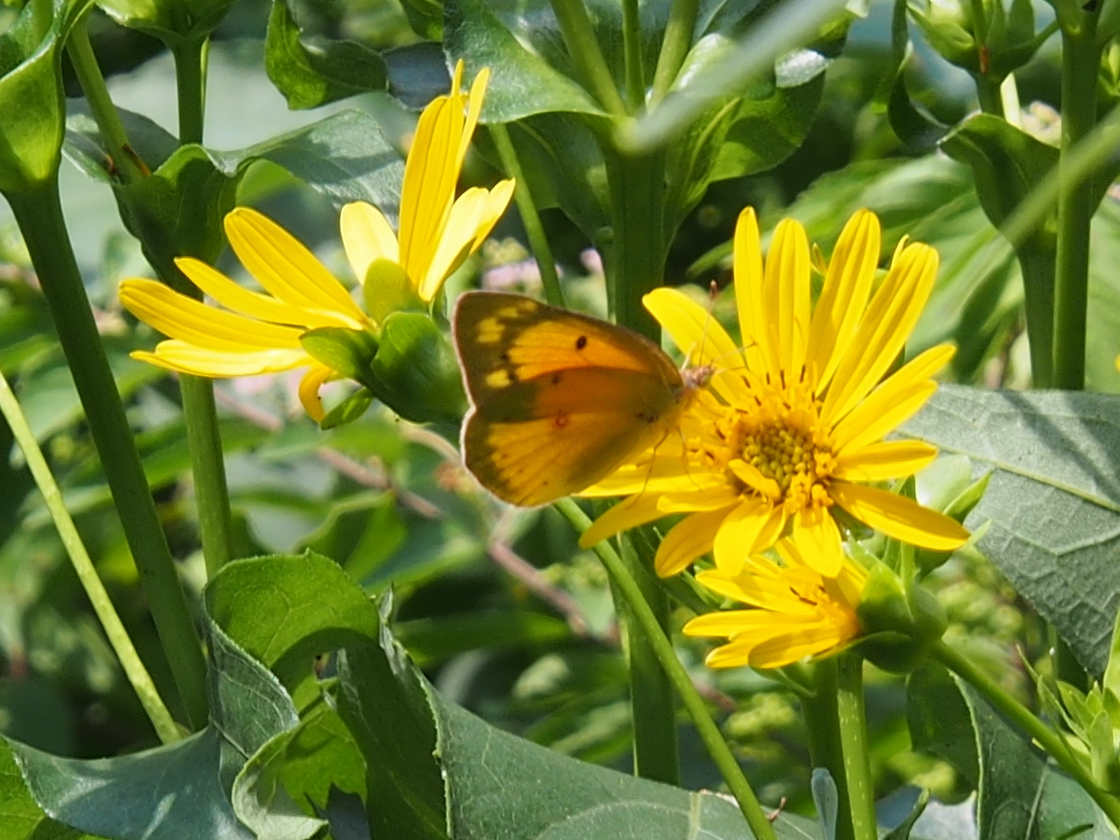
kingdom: Animalia
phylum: Arthropoda
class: Insecta
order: Lepidoptera
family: Pieridae
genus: Colias
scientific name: Colias eurytheme
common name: Alfalfa butterfly
